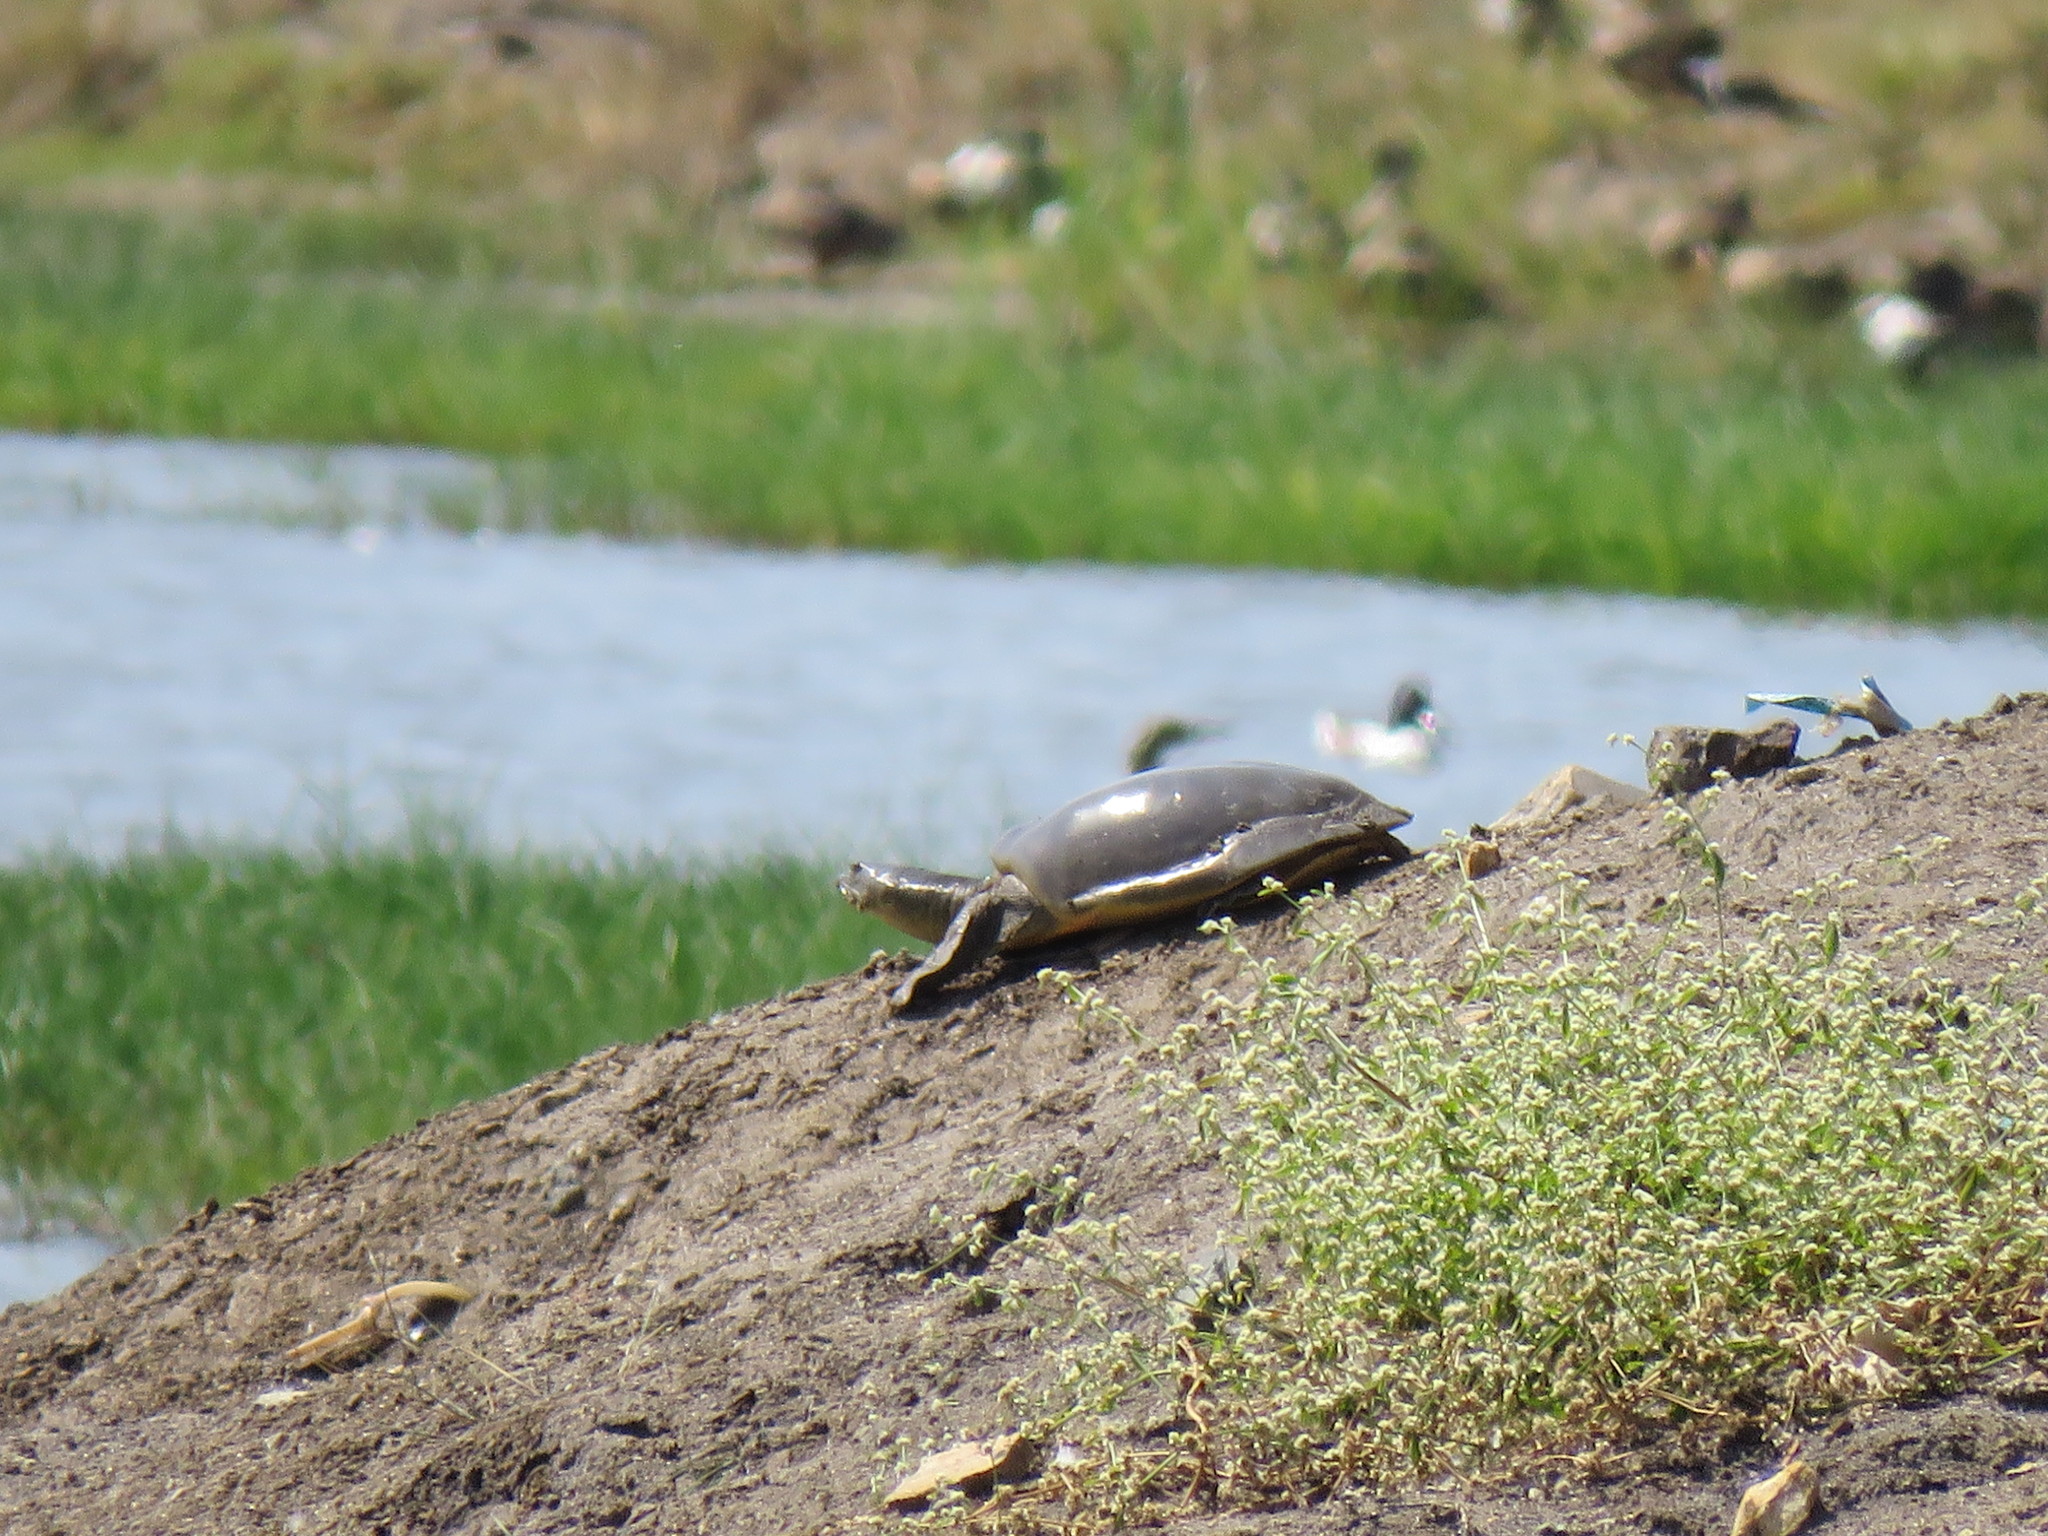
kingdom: Animalia
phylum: Chordata
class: Testudines
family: Trionychidae
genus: Lissemys
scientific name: Lissemys punctata
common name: Indian flap-shelled turtle
